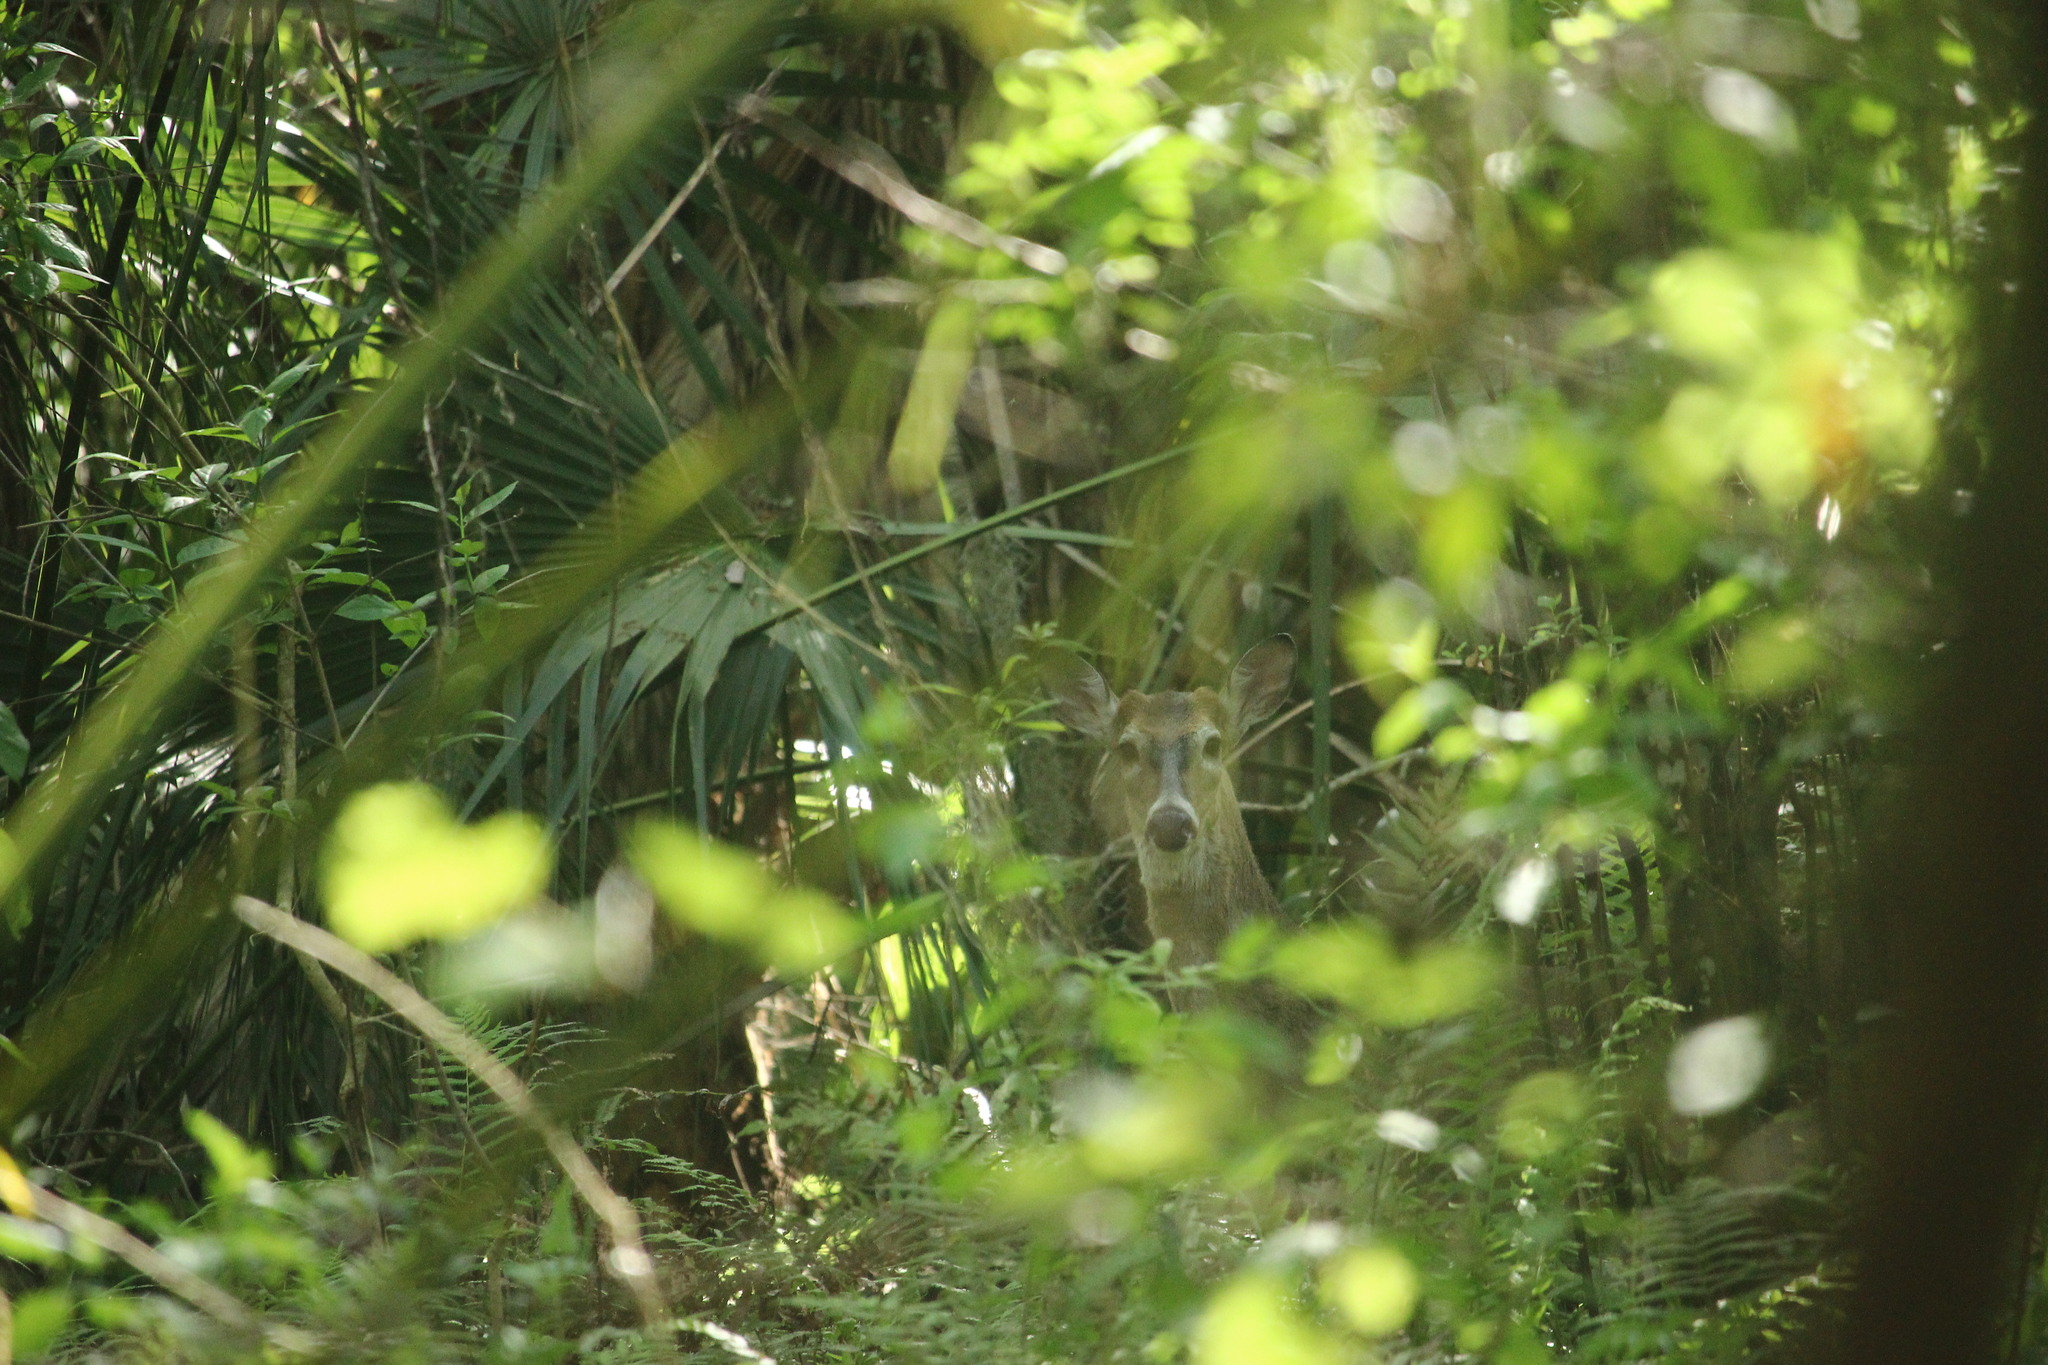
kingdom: Animalia
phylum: Chordata
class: Mammalia
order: Artiodactyla
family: Cervidae
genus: Odocoileus
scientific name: Odocoileus virginianus
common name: White-tailed deer
